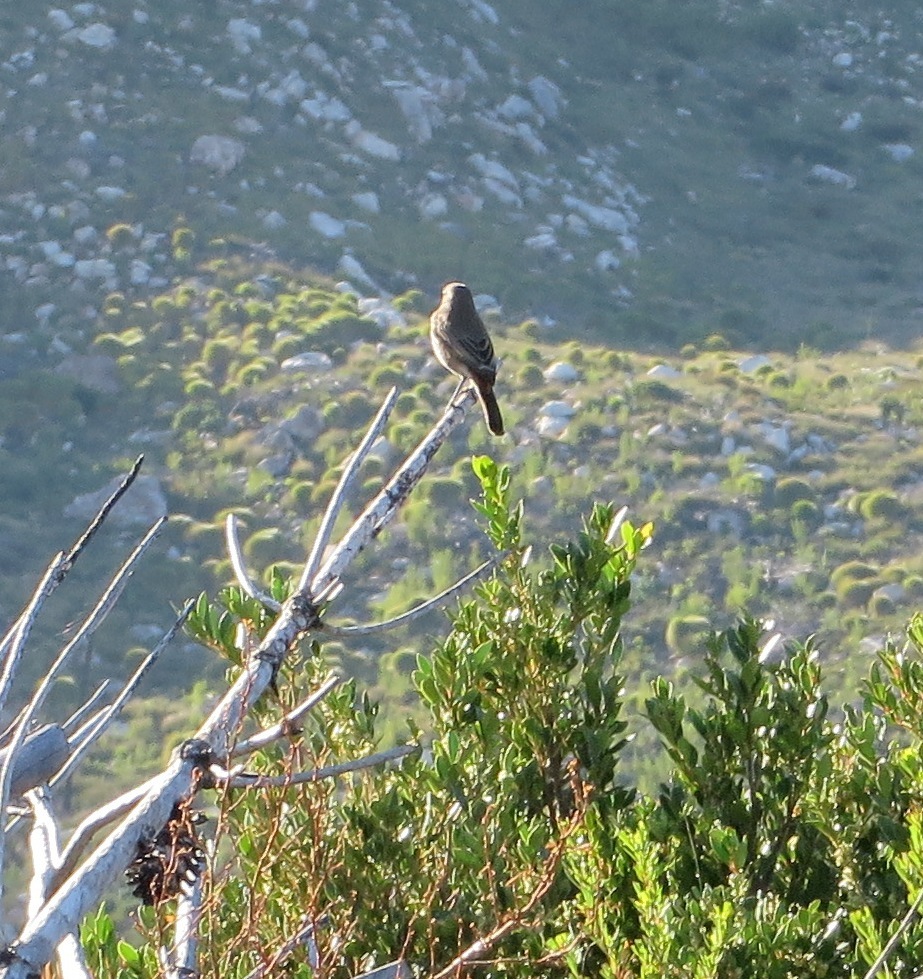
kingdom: Animalia
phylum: Chordata
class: Aves
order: Passeriformes
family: Muscicapidae
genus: Oenanthe
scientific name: Oenanthe familiaris
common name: Familiar chat
